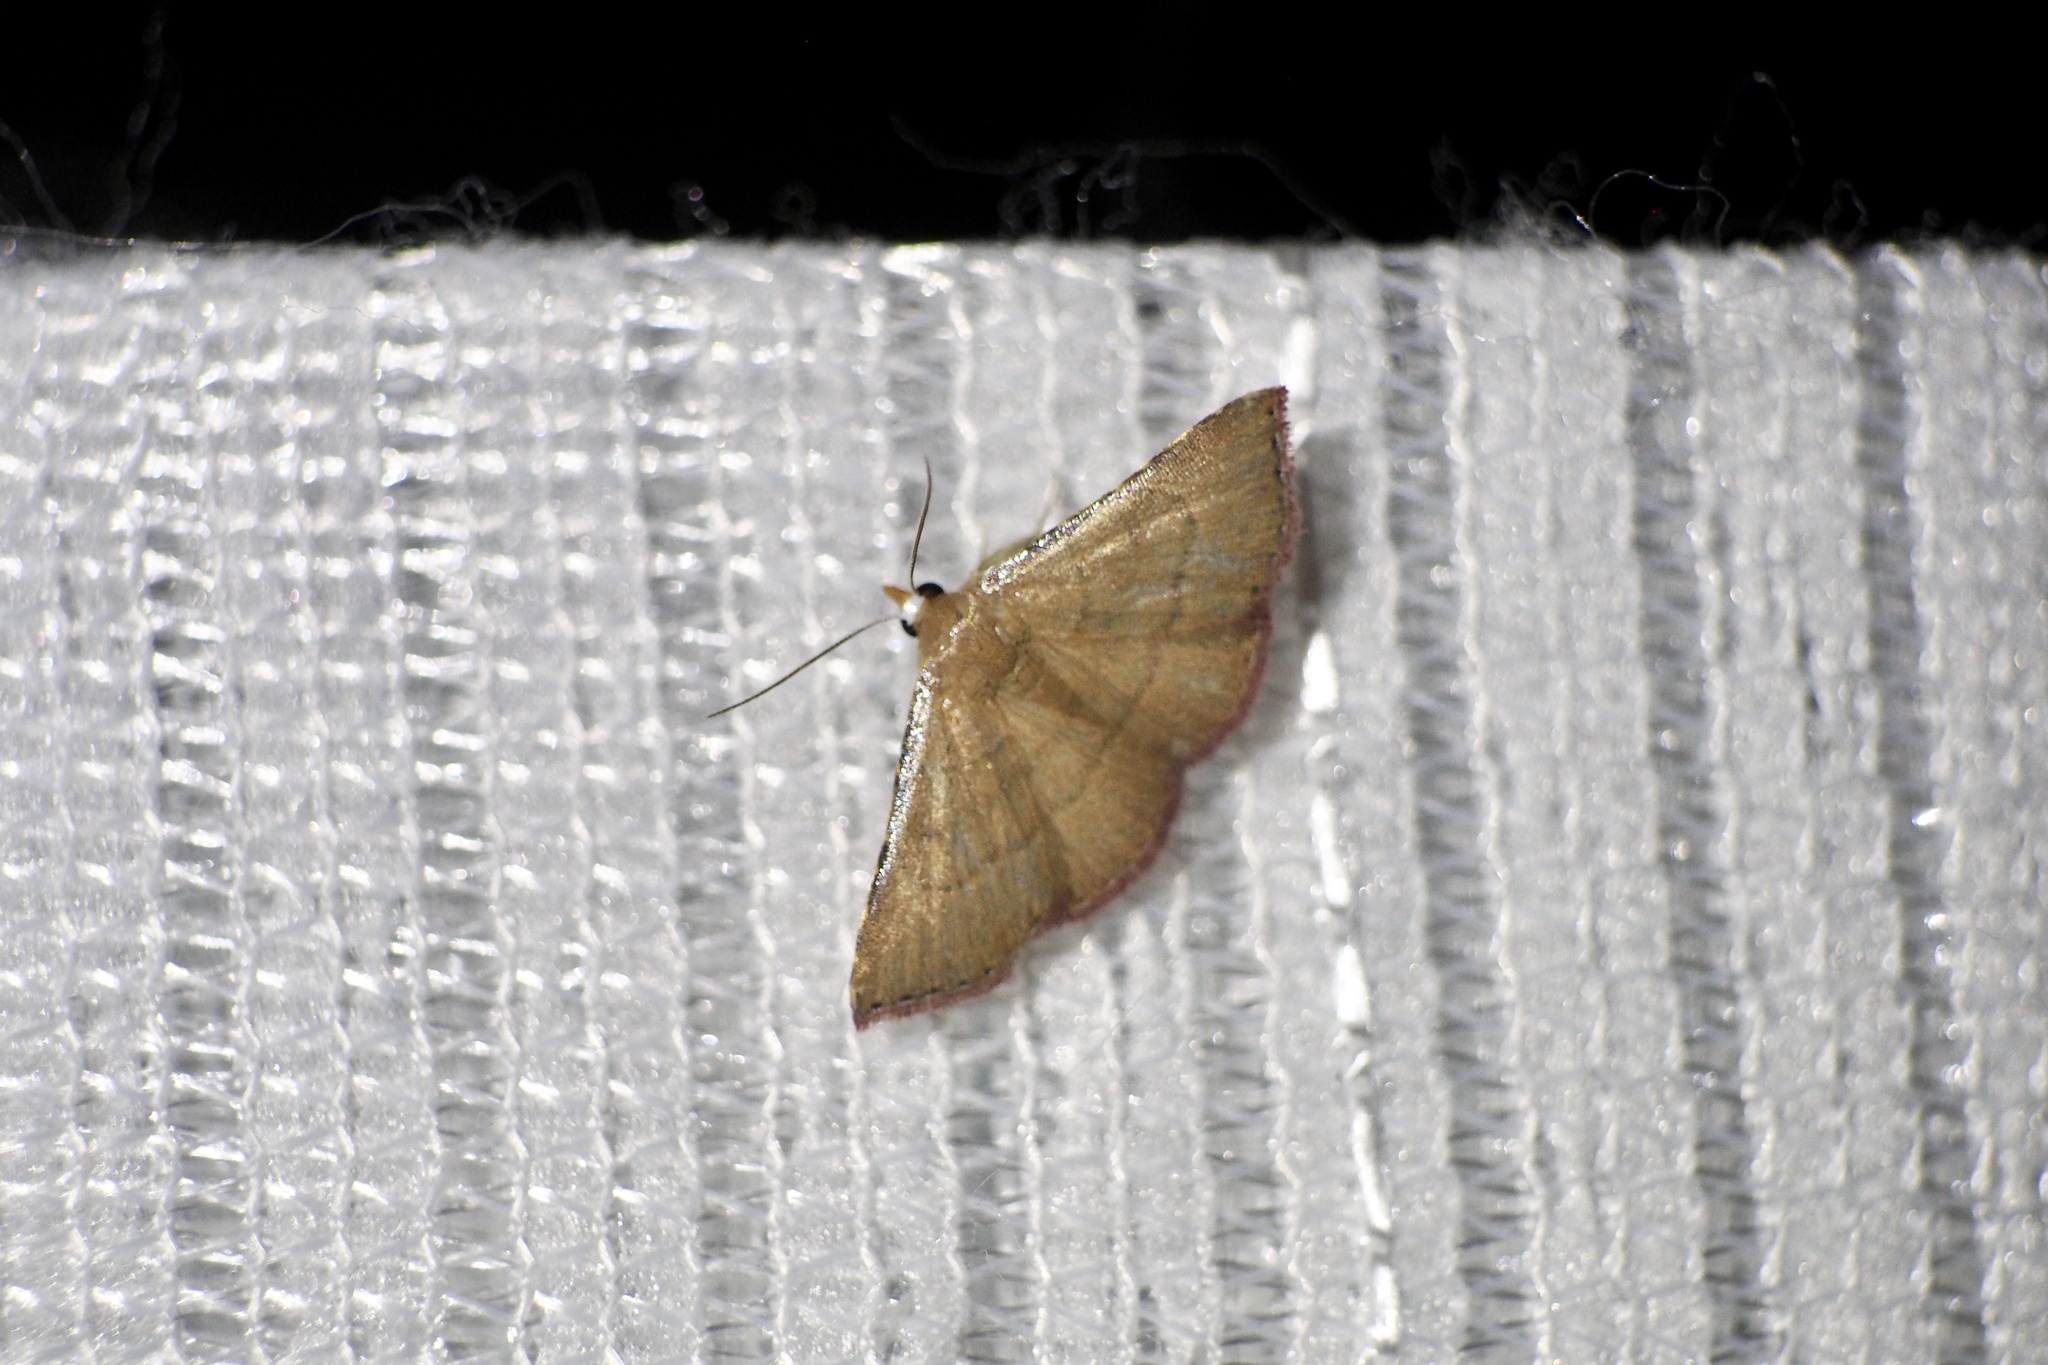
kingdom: Animalia
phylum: Arthropoda
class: Insecta
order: Lepidoptera
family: Erebidae
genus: Corgatha
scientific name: Corgatha obsoleta
